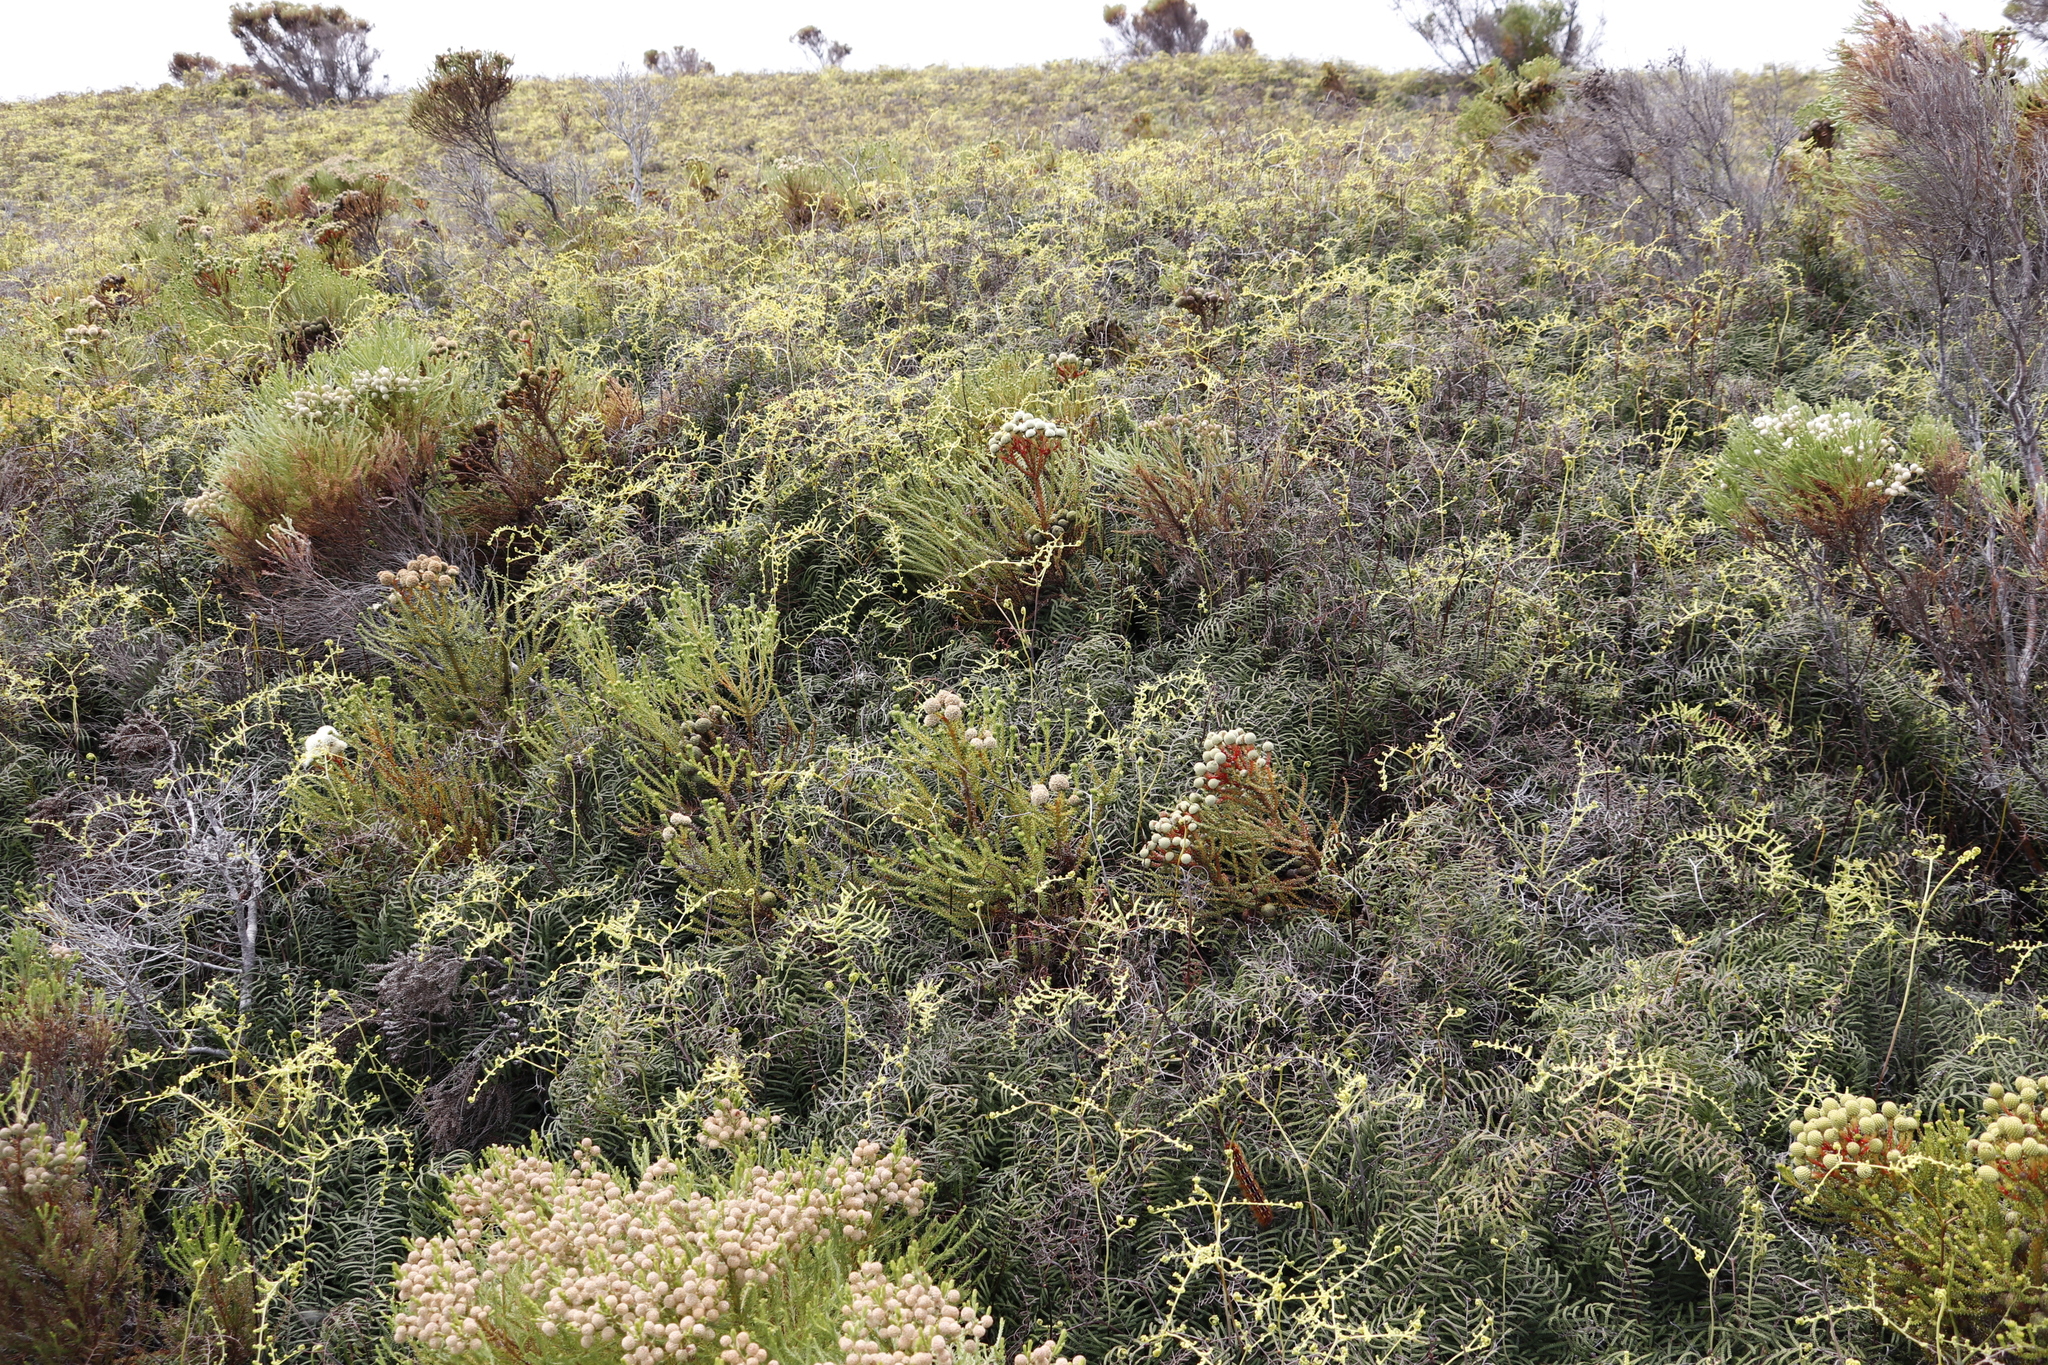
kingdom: Plantae
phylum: Tracheophyta
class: Polypodiopsida
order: Gleicheniales
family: Gleicheniaceae
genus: Gleichenia
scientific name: Gleichenia polypodioides
